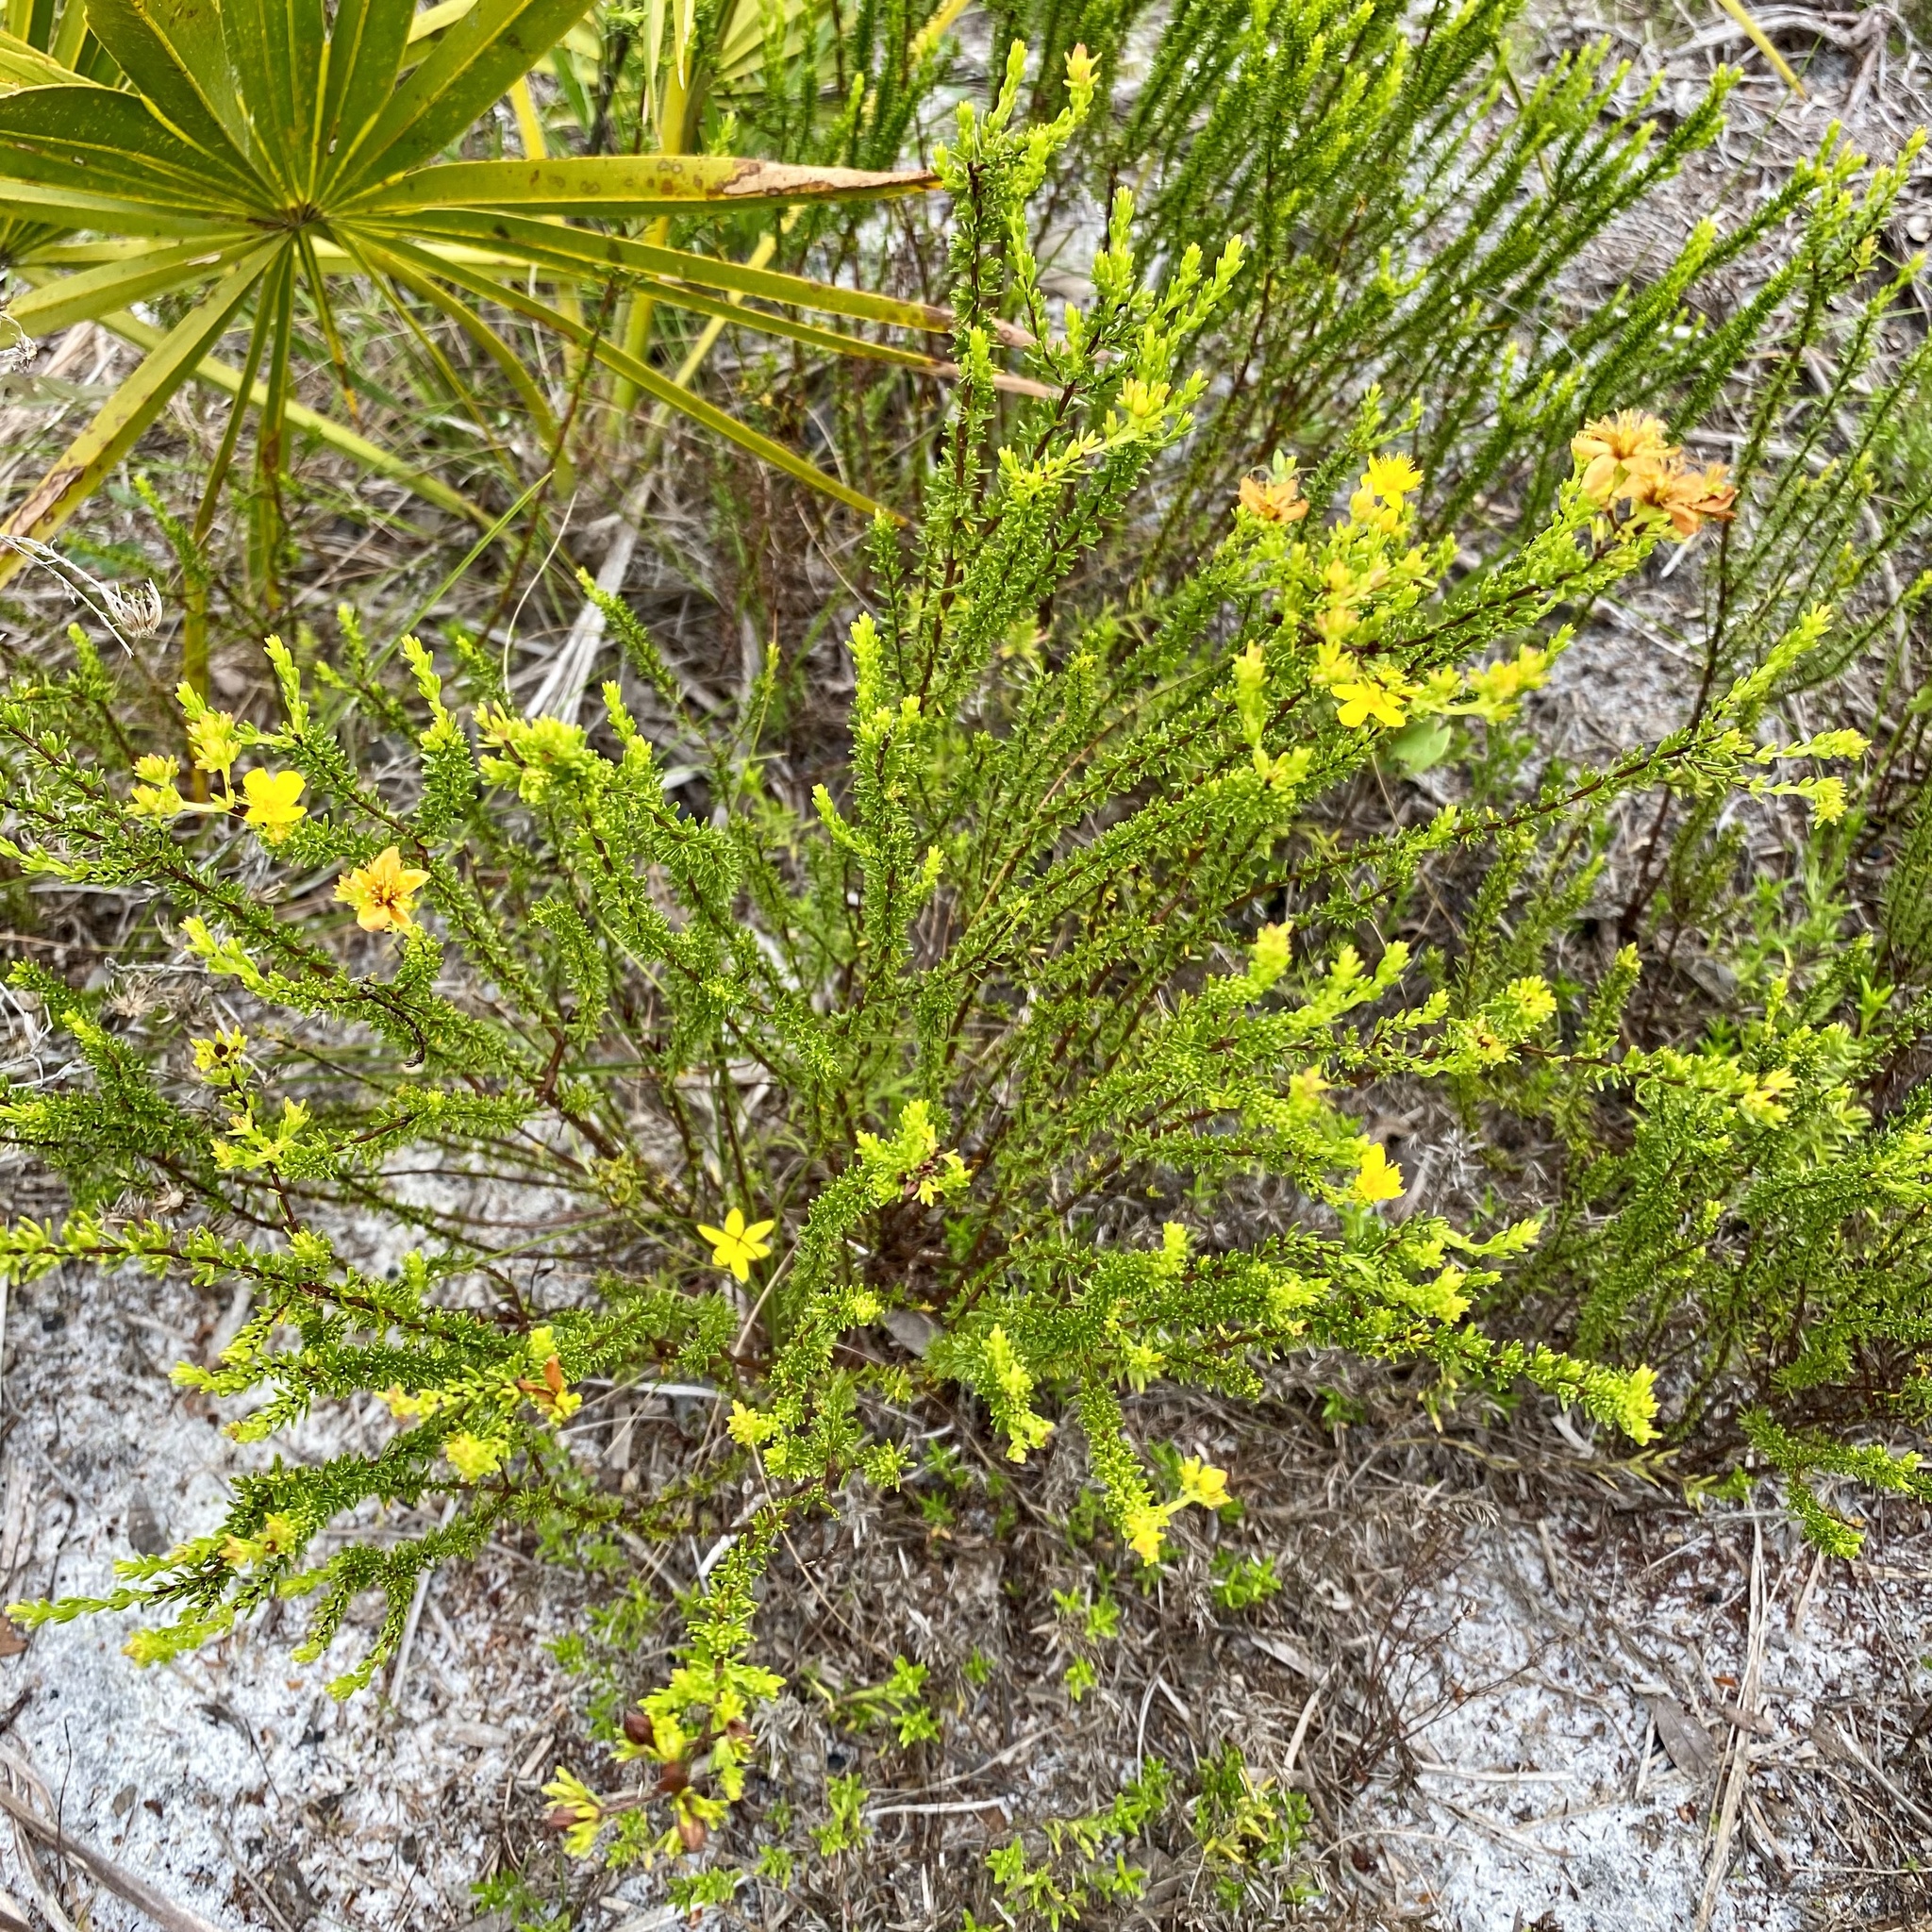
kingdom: Plantae
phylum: Tracheophyta
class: Magnoliopsida
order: Malpighiales
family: Hypericaceae
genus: Hypericum
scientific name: Hypericum tenuifolium
